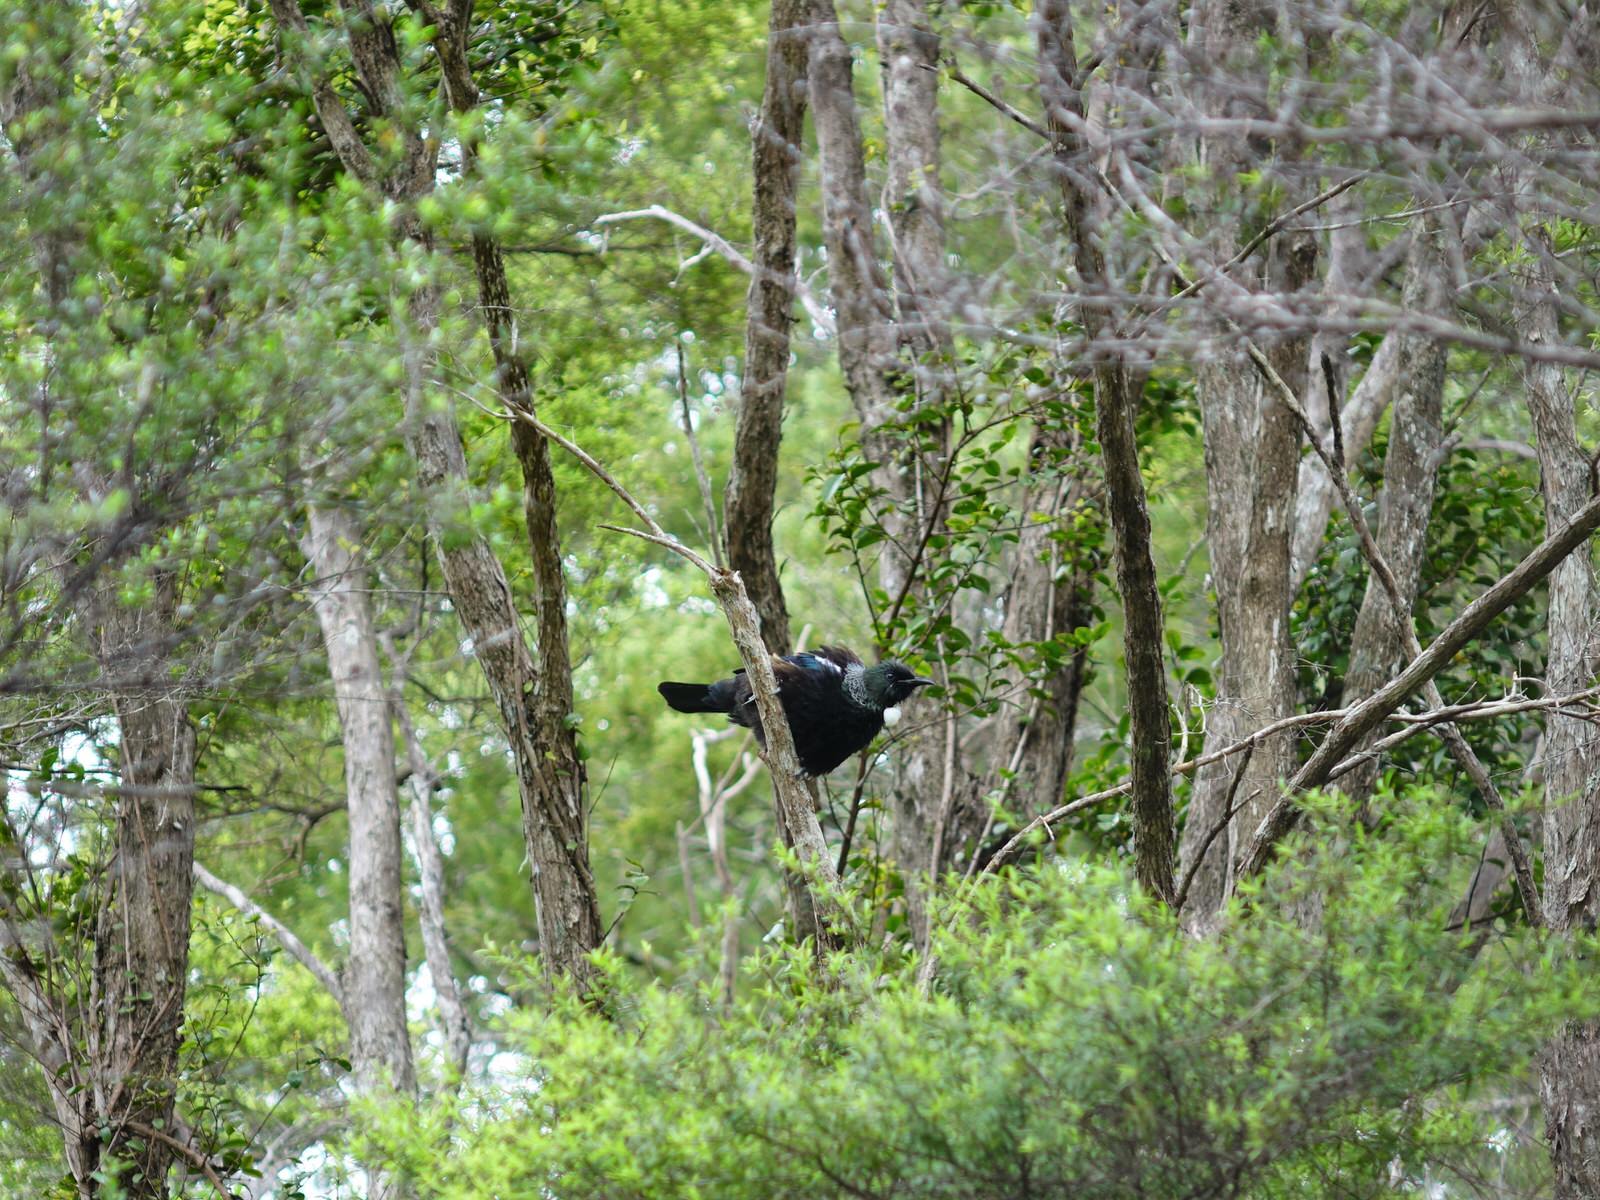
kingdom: Animalia
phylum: Chordata
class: Aves
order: Passeriformes
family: Meliphagidae
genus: Prosthemadera
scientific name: Prosthemadera novaeseelandiae
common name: Tui
